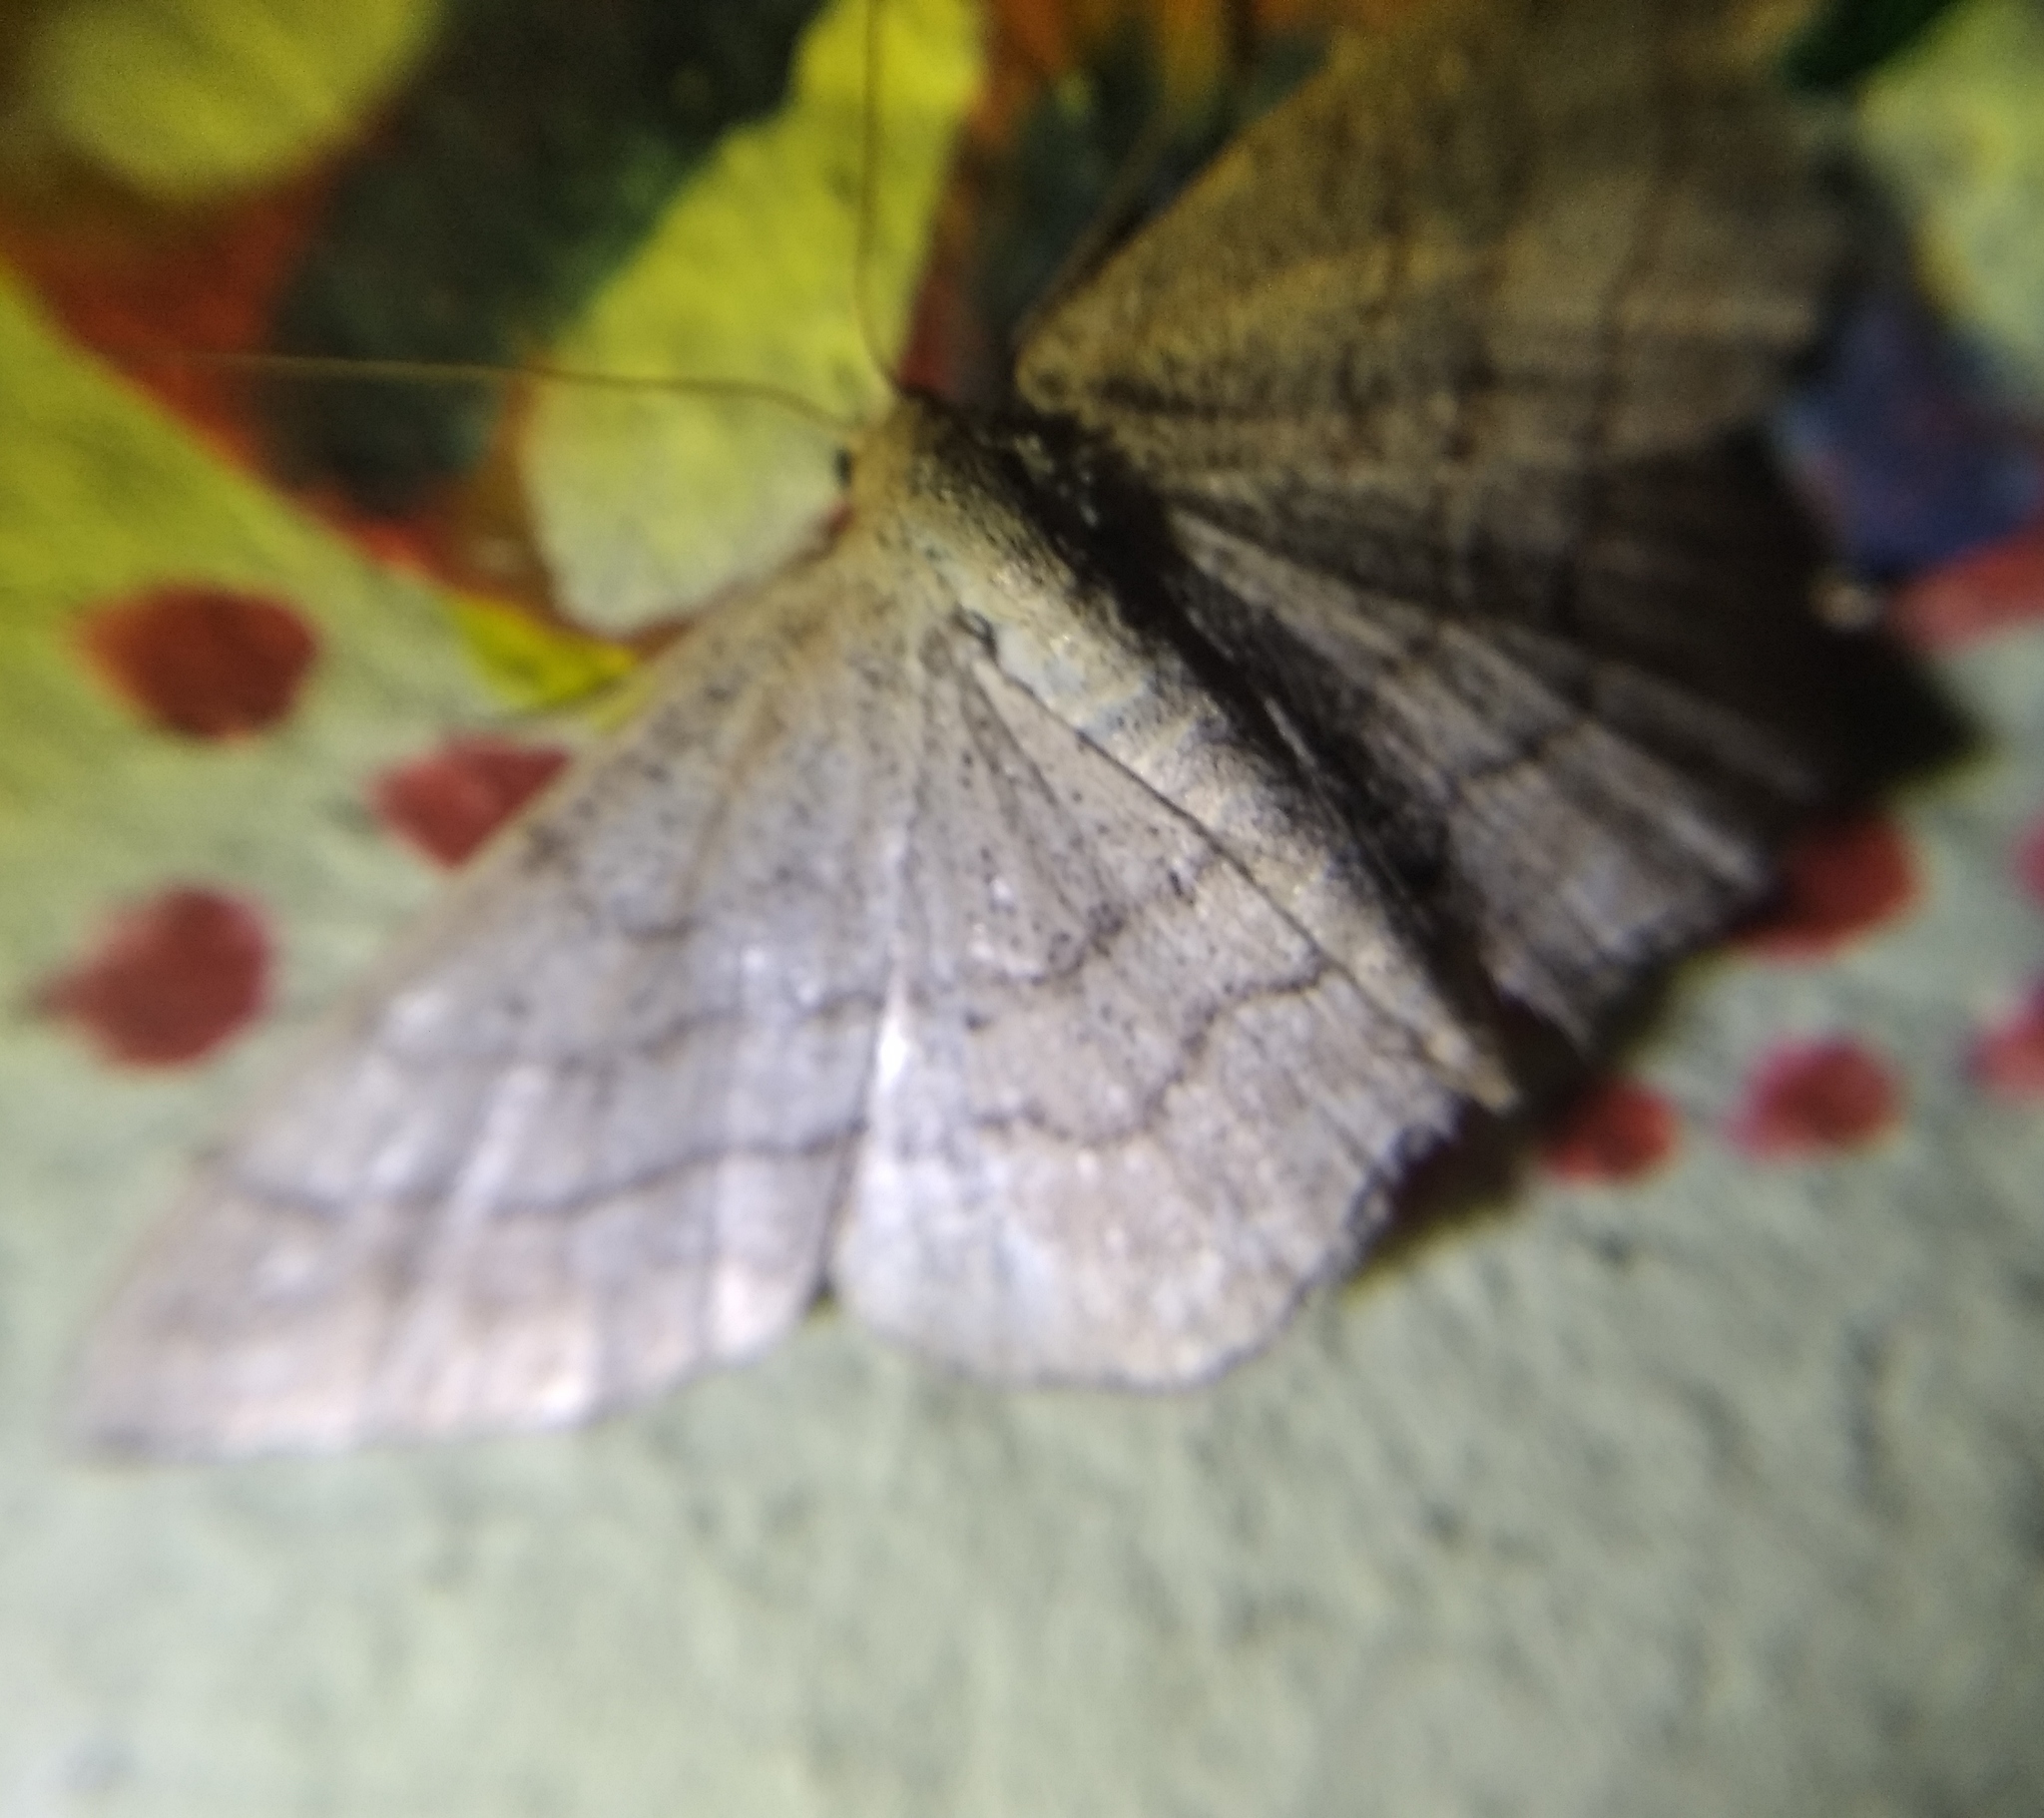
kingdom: Animalia
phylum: Arthropoda
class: Insecta
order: Lepidoptera
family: Geometridae
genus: Scopula
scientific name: Scopula rubiginata
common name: Tawny wave
